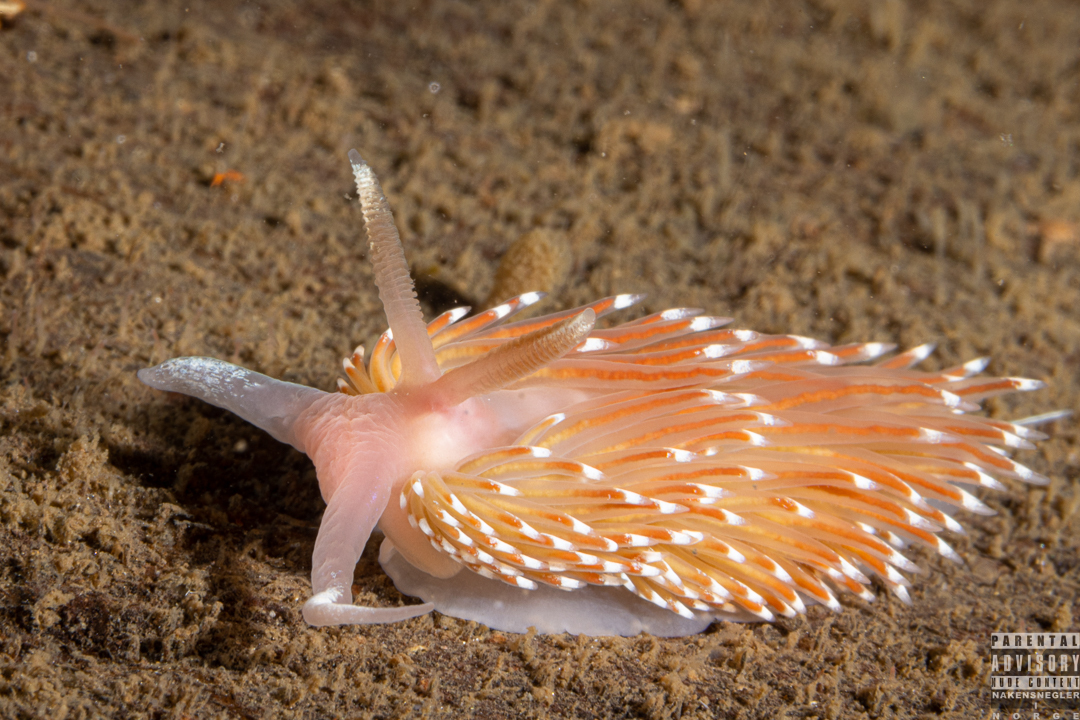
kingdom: Animalia
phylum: Mollusca
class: Gastropoda
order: Nudibranchia
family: Facelinidae
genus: Facelina
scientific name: Facelina bostoniensis
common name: Boston facelina
